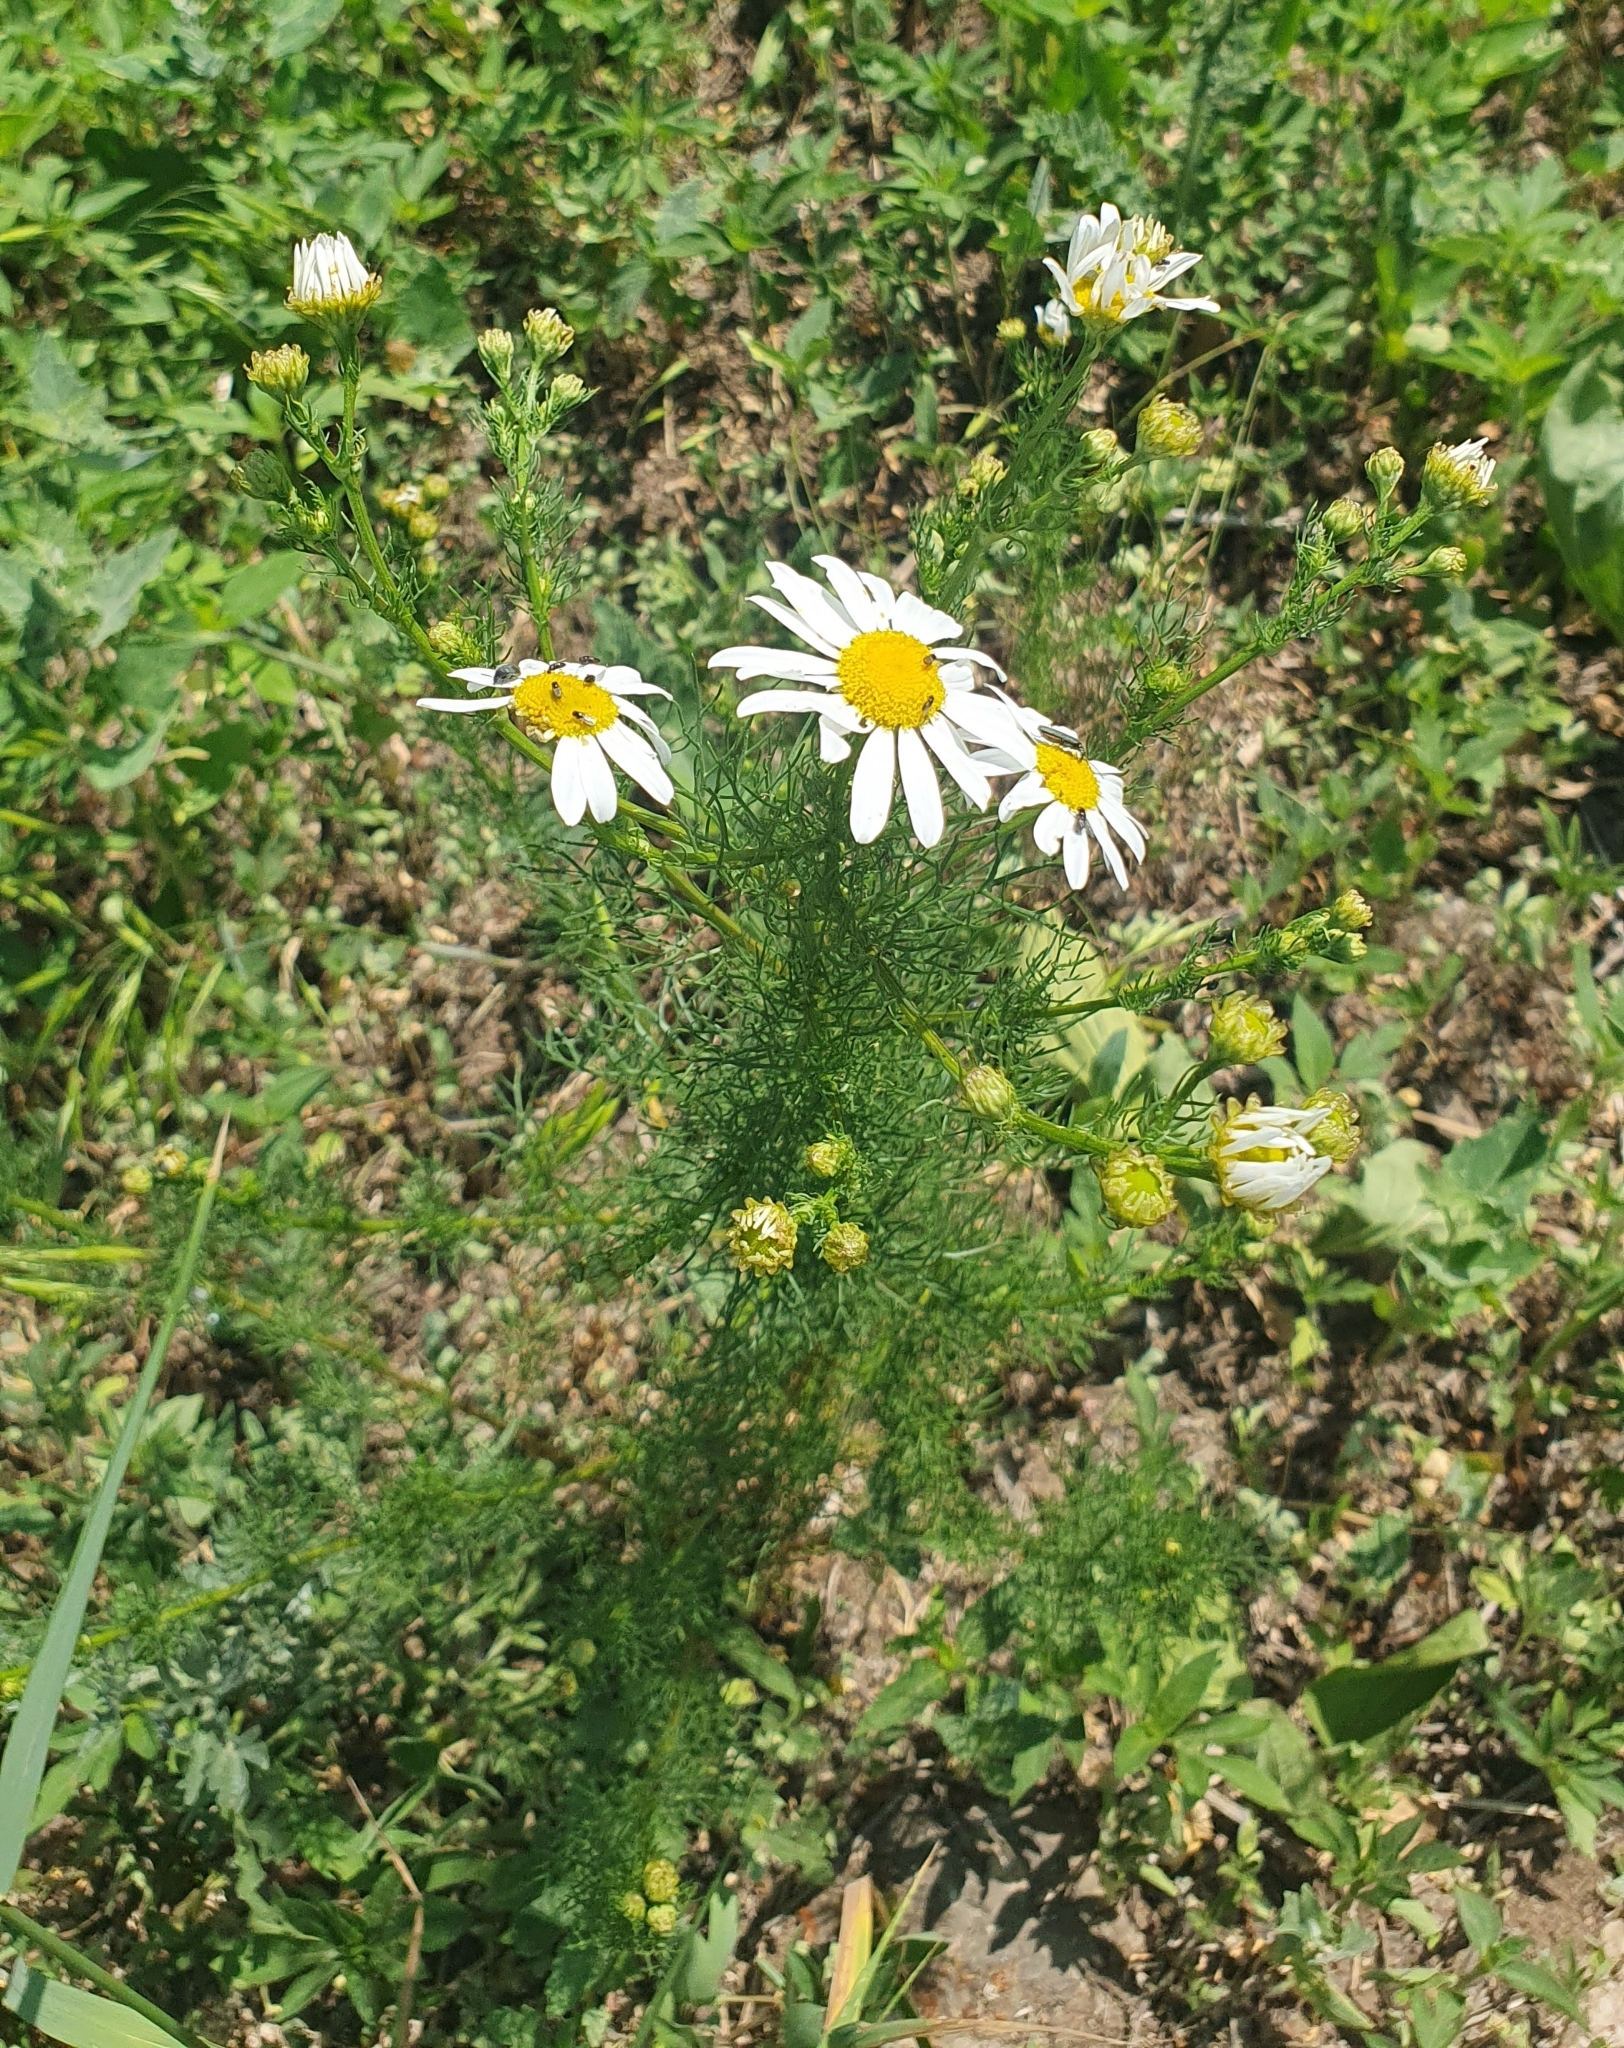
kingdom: Plantae
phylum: Tracheophyta
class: Magnoliopsida
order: Asterales
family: Asteraceae
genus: Tripleurospermum
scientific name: Tripleurospermum inodorum
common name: Scentless mayweed
